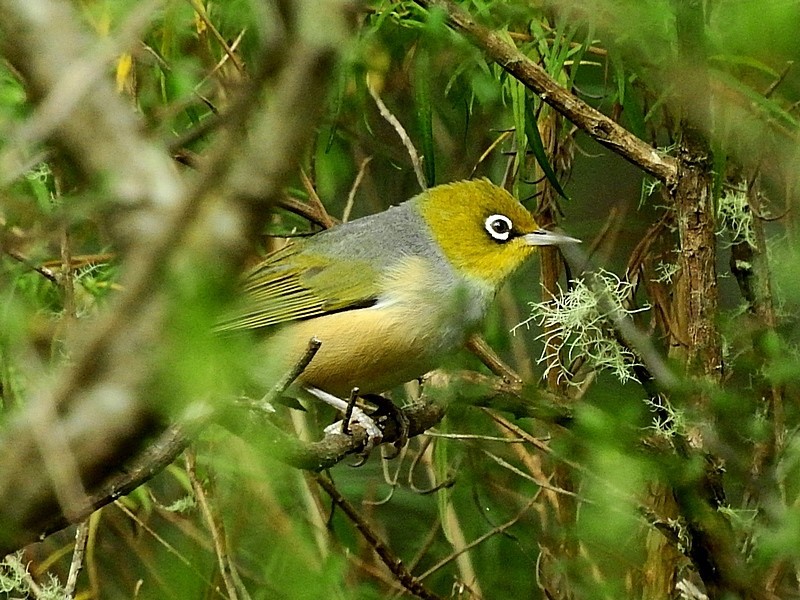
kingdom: Animalia
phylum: Chordata
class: Aves
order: Passeriformes
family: Zosteropidae
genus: Zosterops
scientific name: Zosterops lateralis
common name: Silvereye
